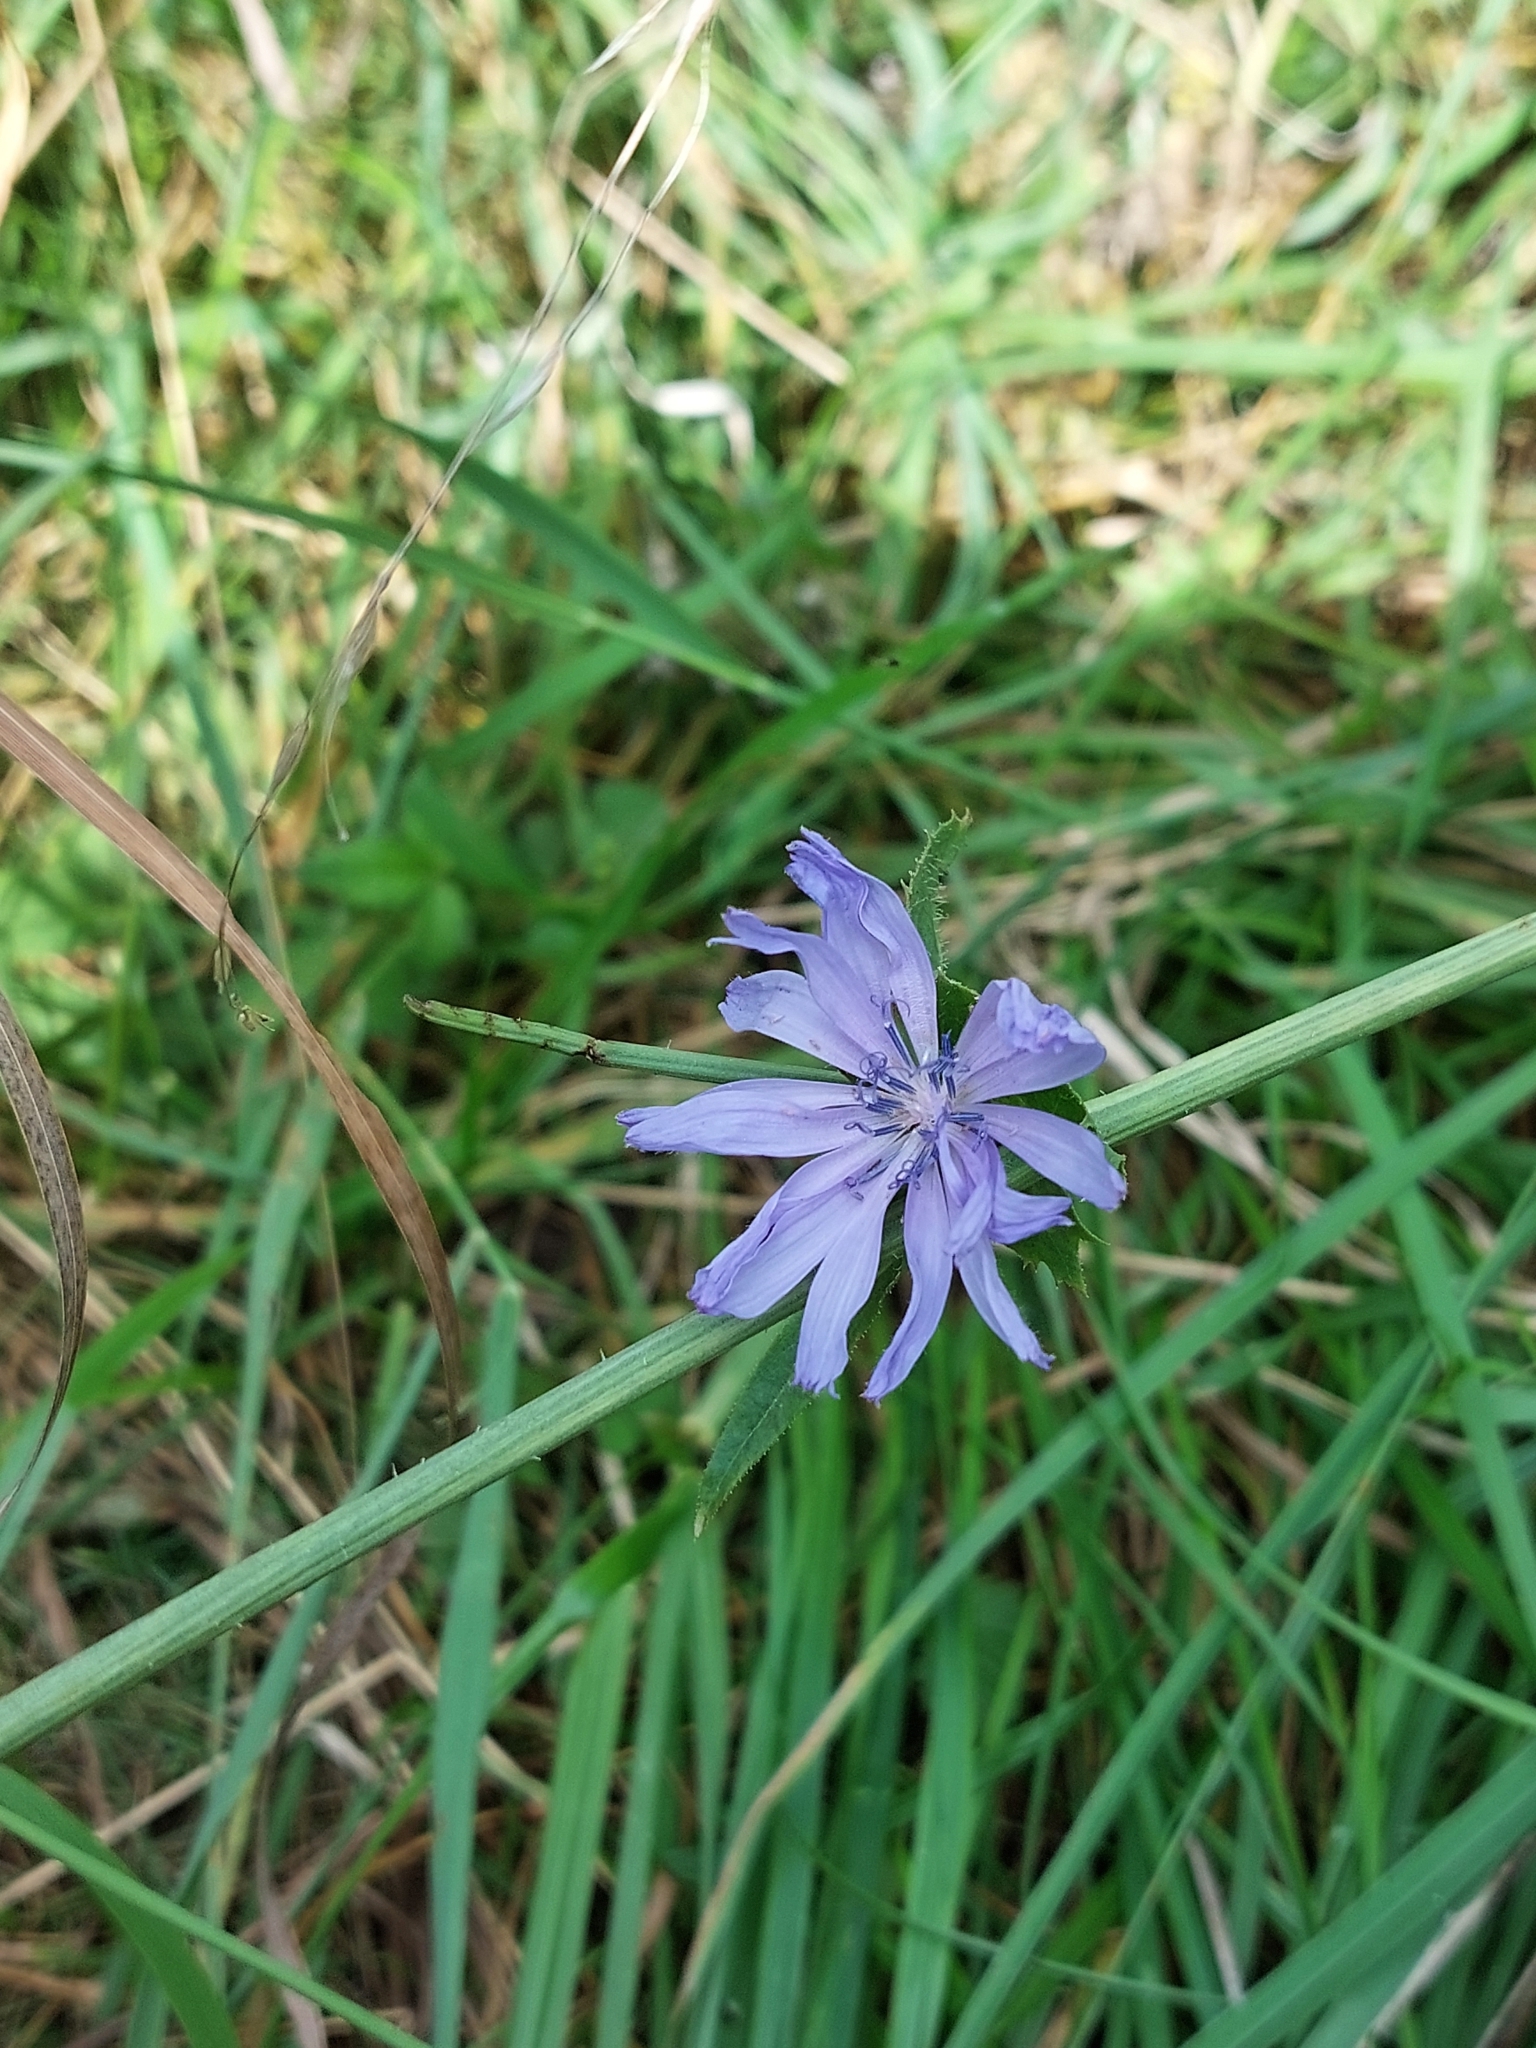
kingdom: Plantae
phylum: Tracheophyta
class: Magnoliopsida
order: Asterales
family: Asteraceae
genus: Cichorium
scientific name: Cichorium intybus
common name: Chicory
